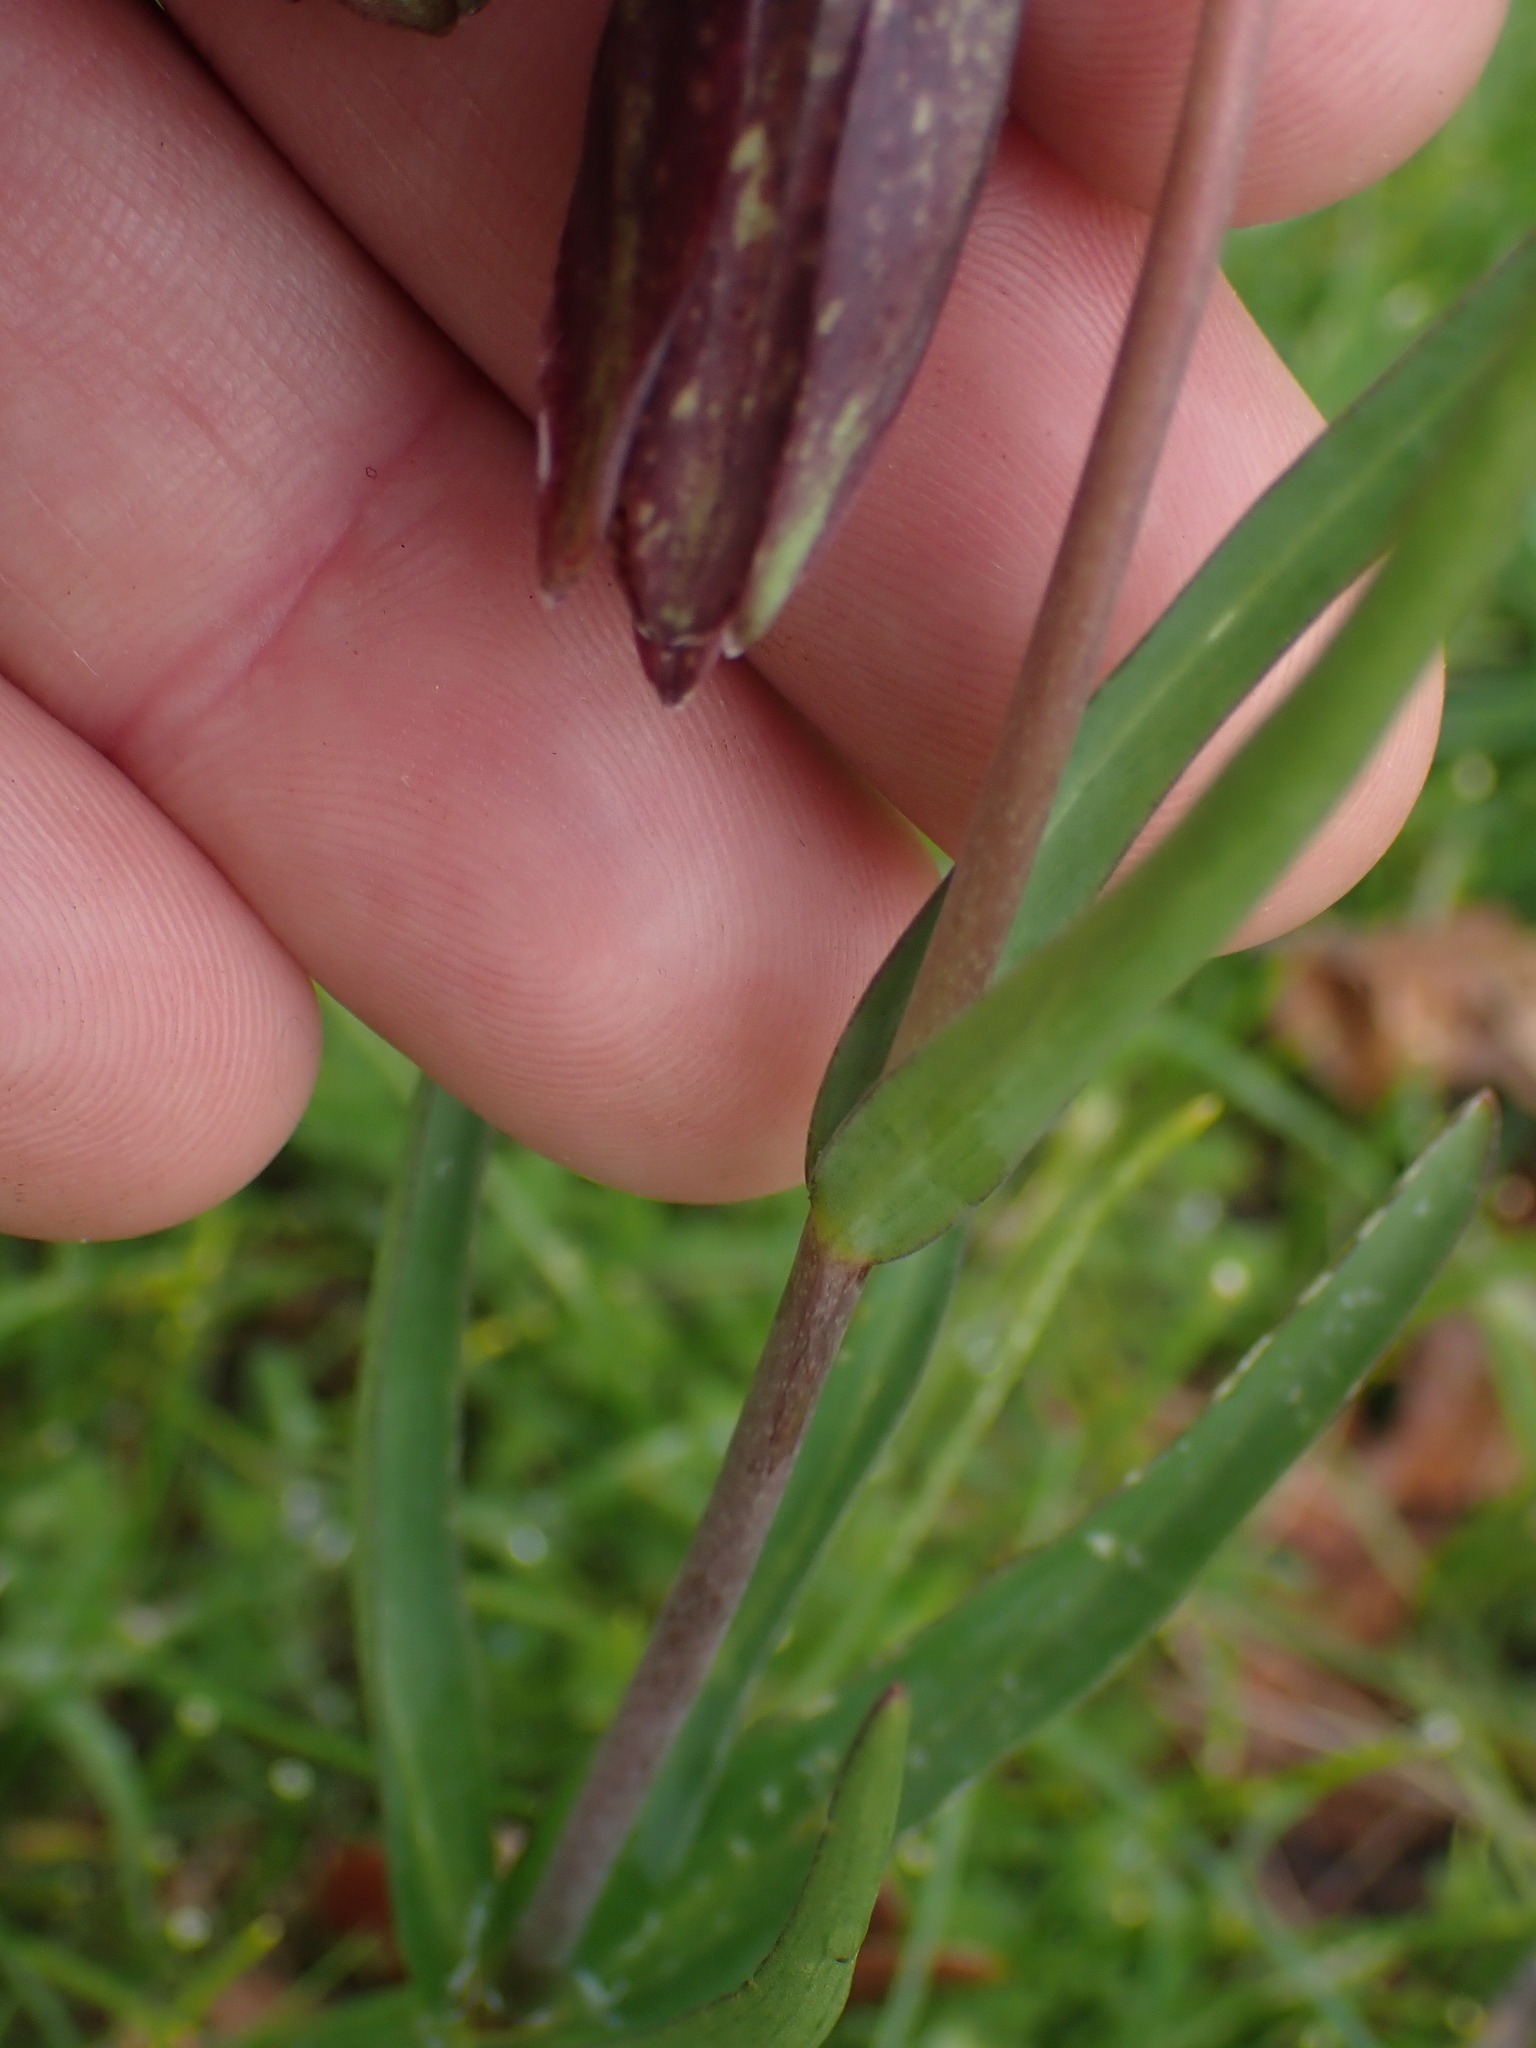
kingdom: Plantae
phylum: Tracheophyta
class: Liliopsida
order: Liliales
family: Liliaceae
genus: Fritillaria
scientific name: Fritillaria affinis
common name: Ojai fritillary
